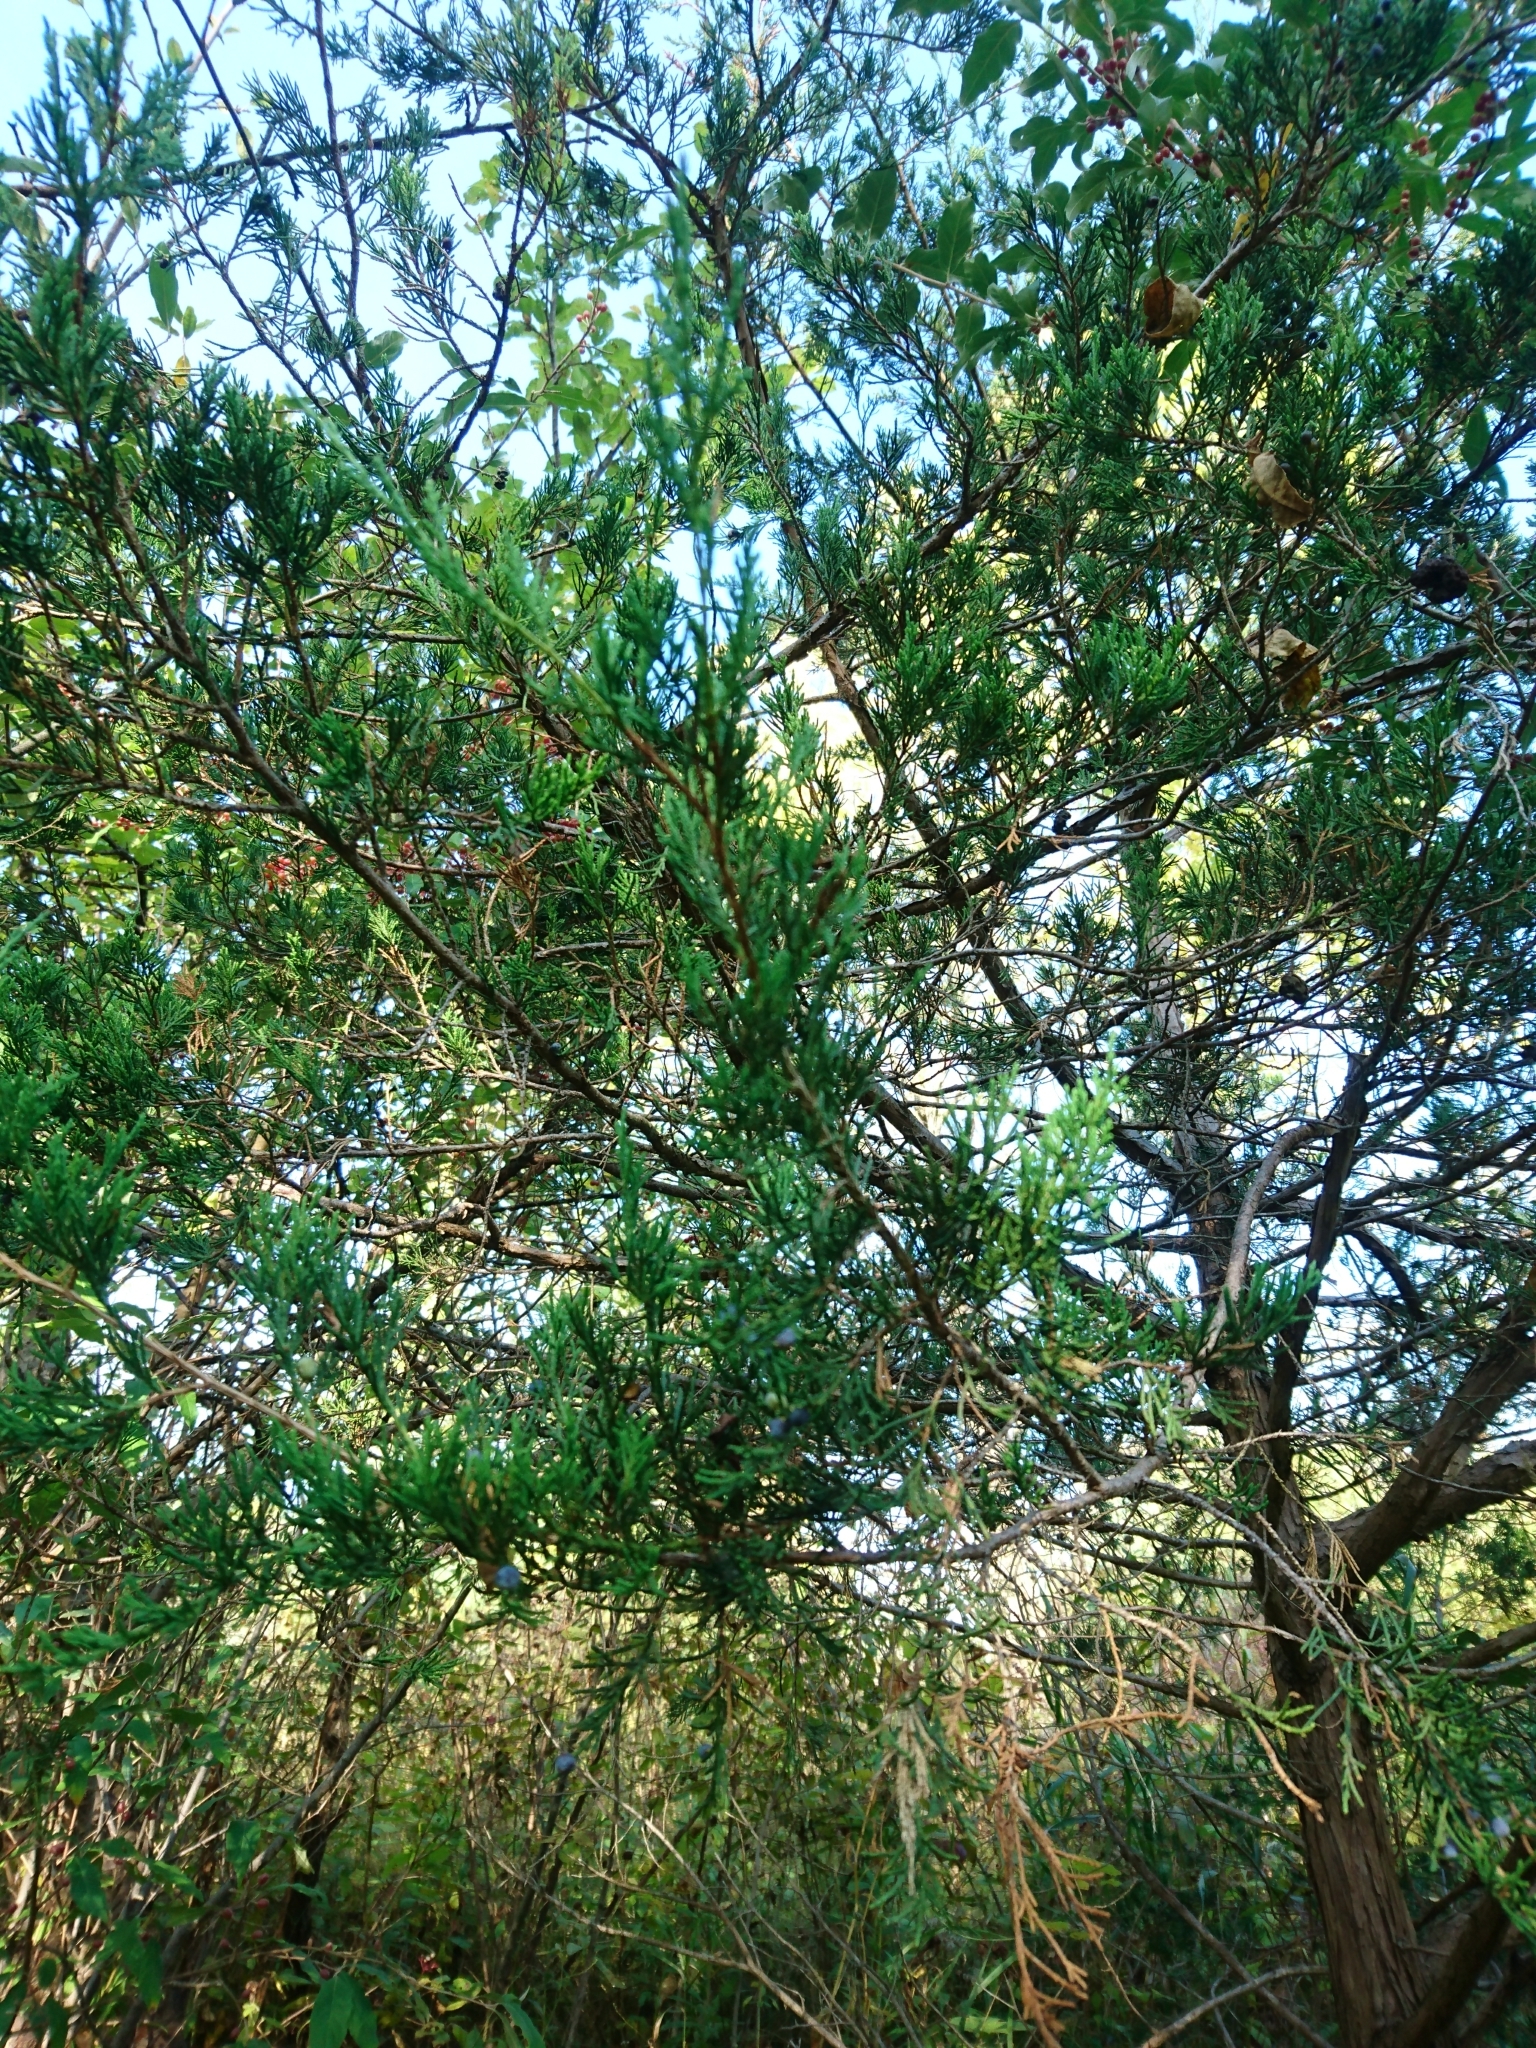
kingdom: Plantae
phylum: Tracheophyta
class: Pinopsida
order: Pinales
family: Cupressaceae
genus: Juniperus
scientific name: Juniperus virginiana
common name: Red juniper
